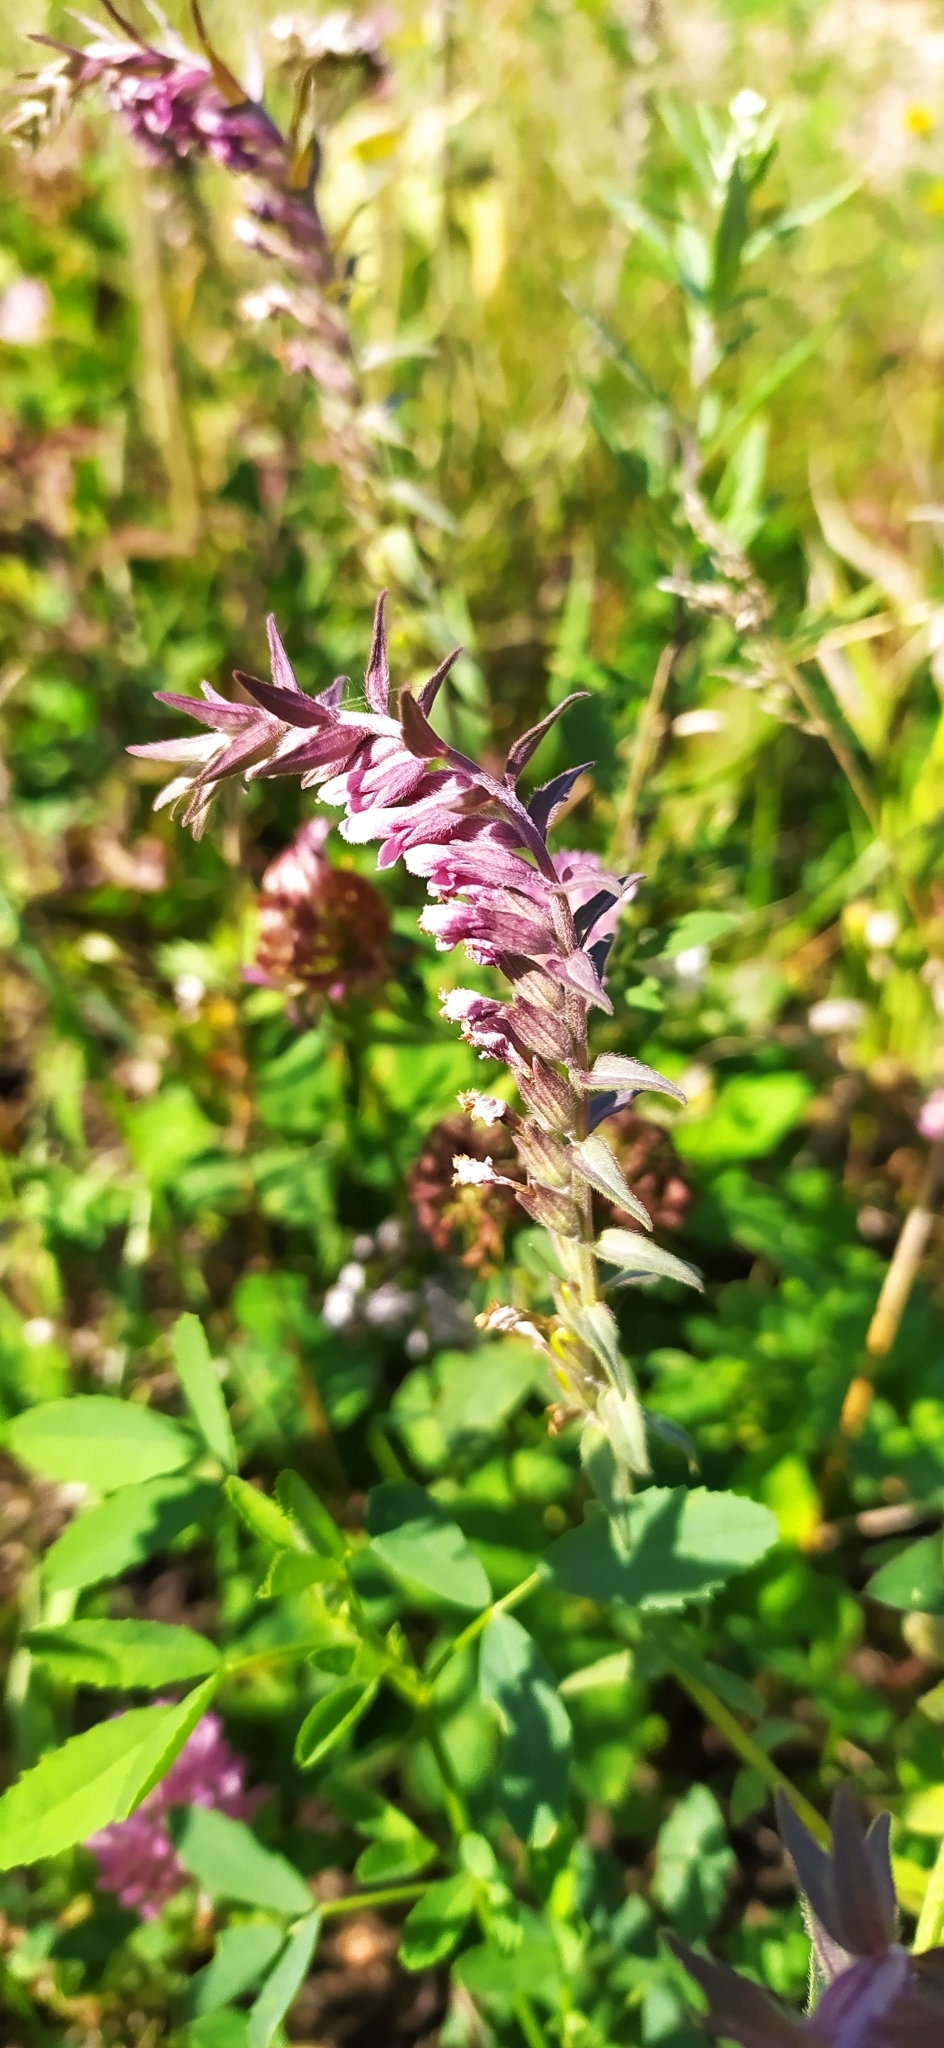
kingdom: Plantae
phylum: Tracheophyta
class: Magnoliopsida
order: Lamiales
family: Orobanchaceae
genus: Odontites
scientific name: Odontites vulgaris
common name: Broomrape
